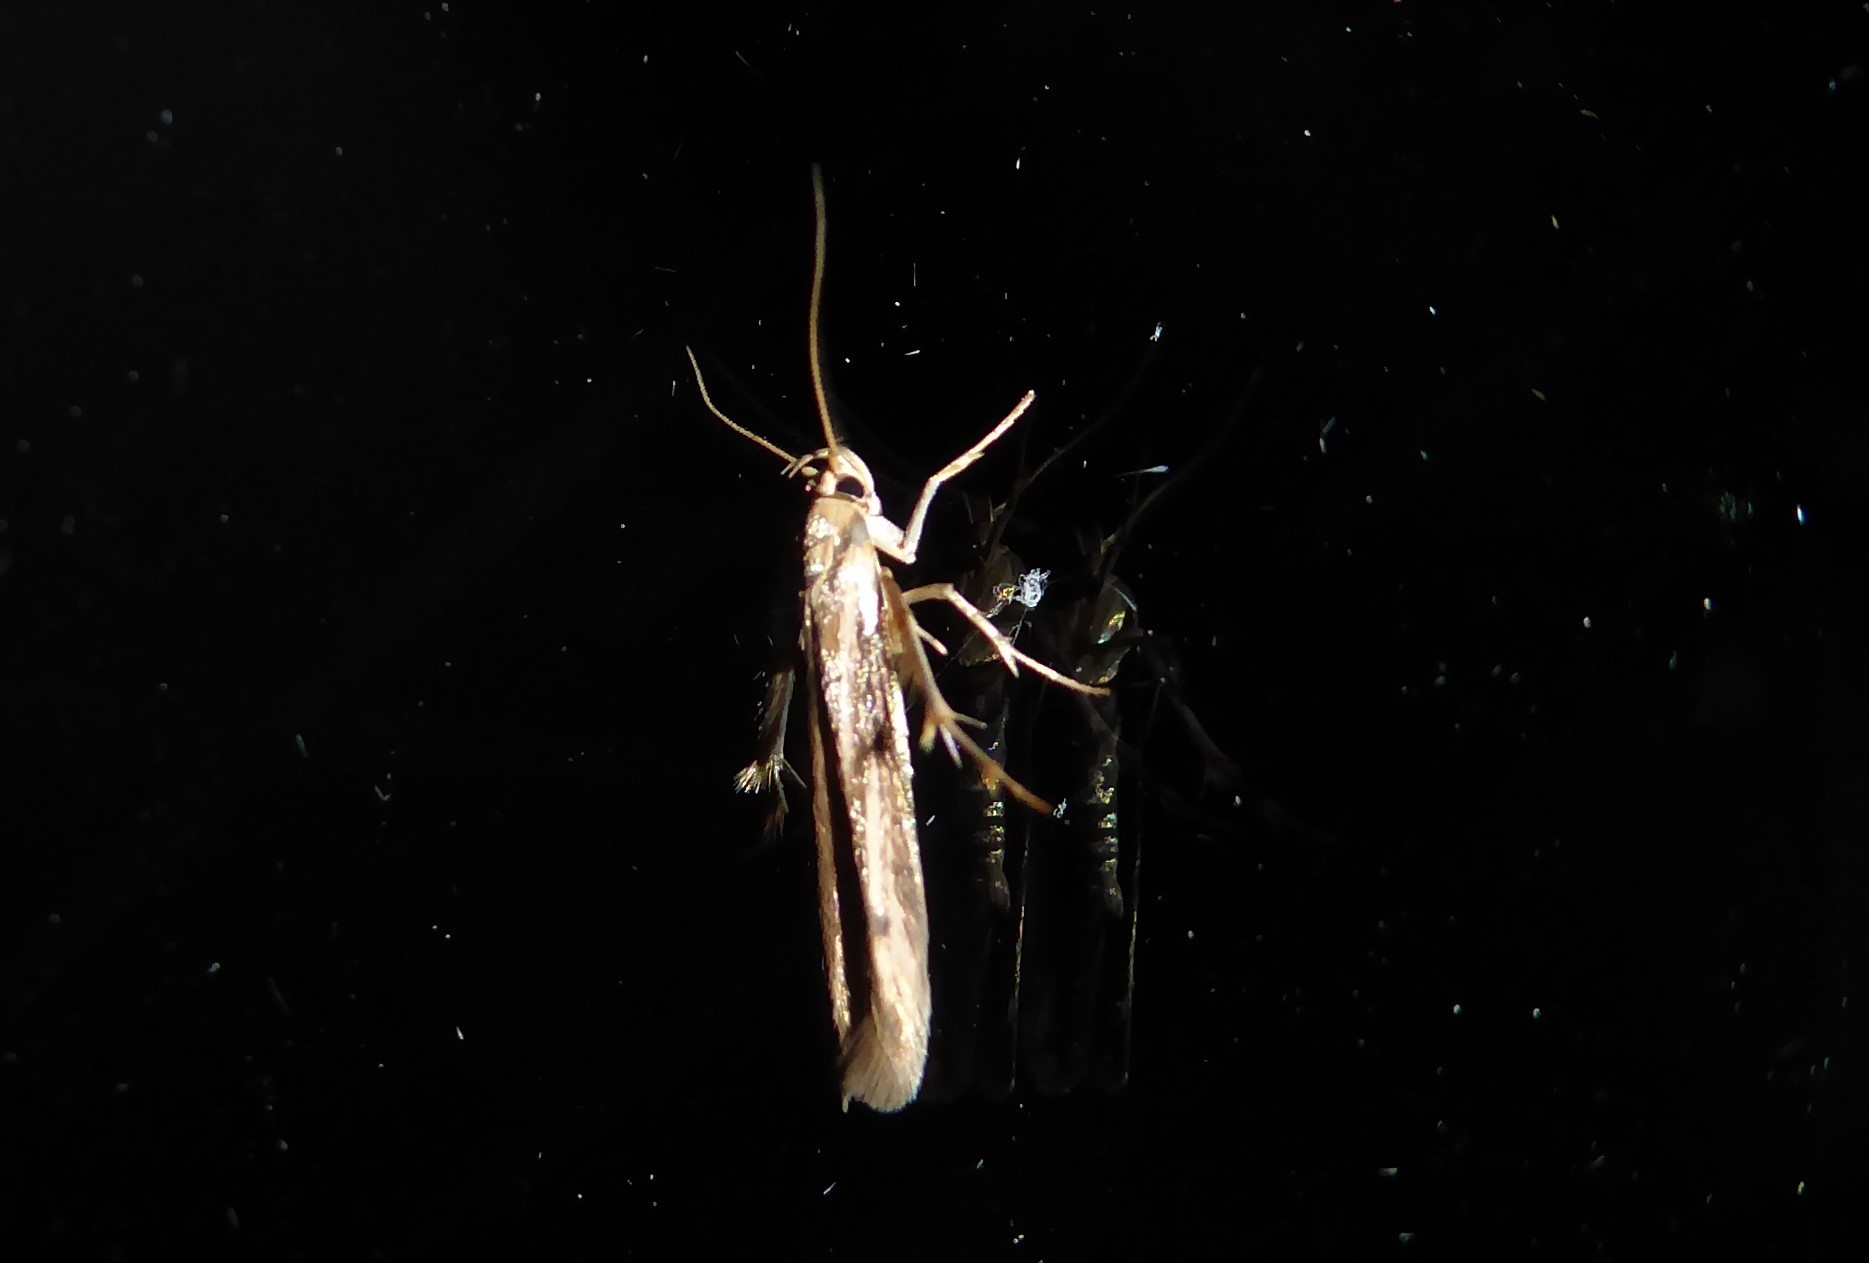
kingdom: Animalia
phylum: Arthropoda
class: Insecta
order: Lepidoptera
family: Stathmopodidae
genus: Stathmopoda
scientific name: Stathmopoda aposema
